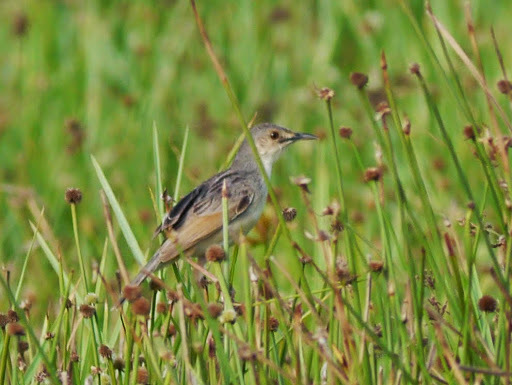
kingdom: Animalia
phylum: Chordata
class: Aves
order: Passeriformes
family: Cisticolidae
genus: Cisticola
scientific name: Cisticola marginatus
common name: Winding cisticola
